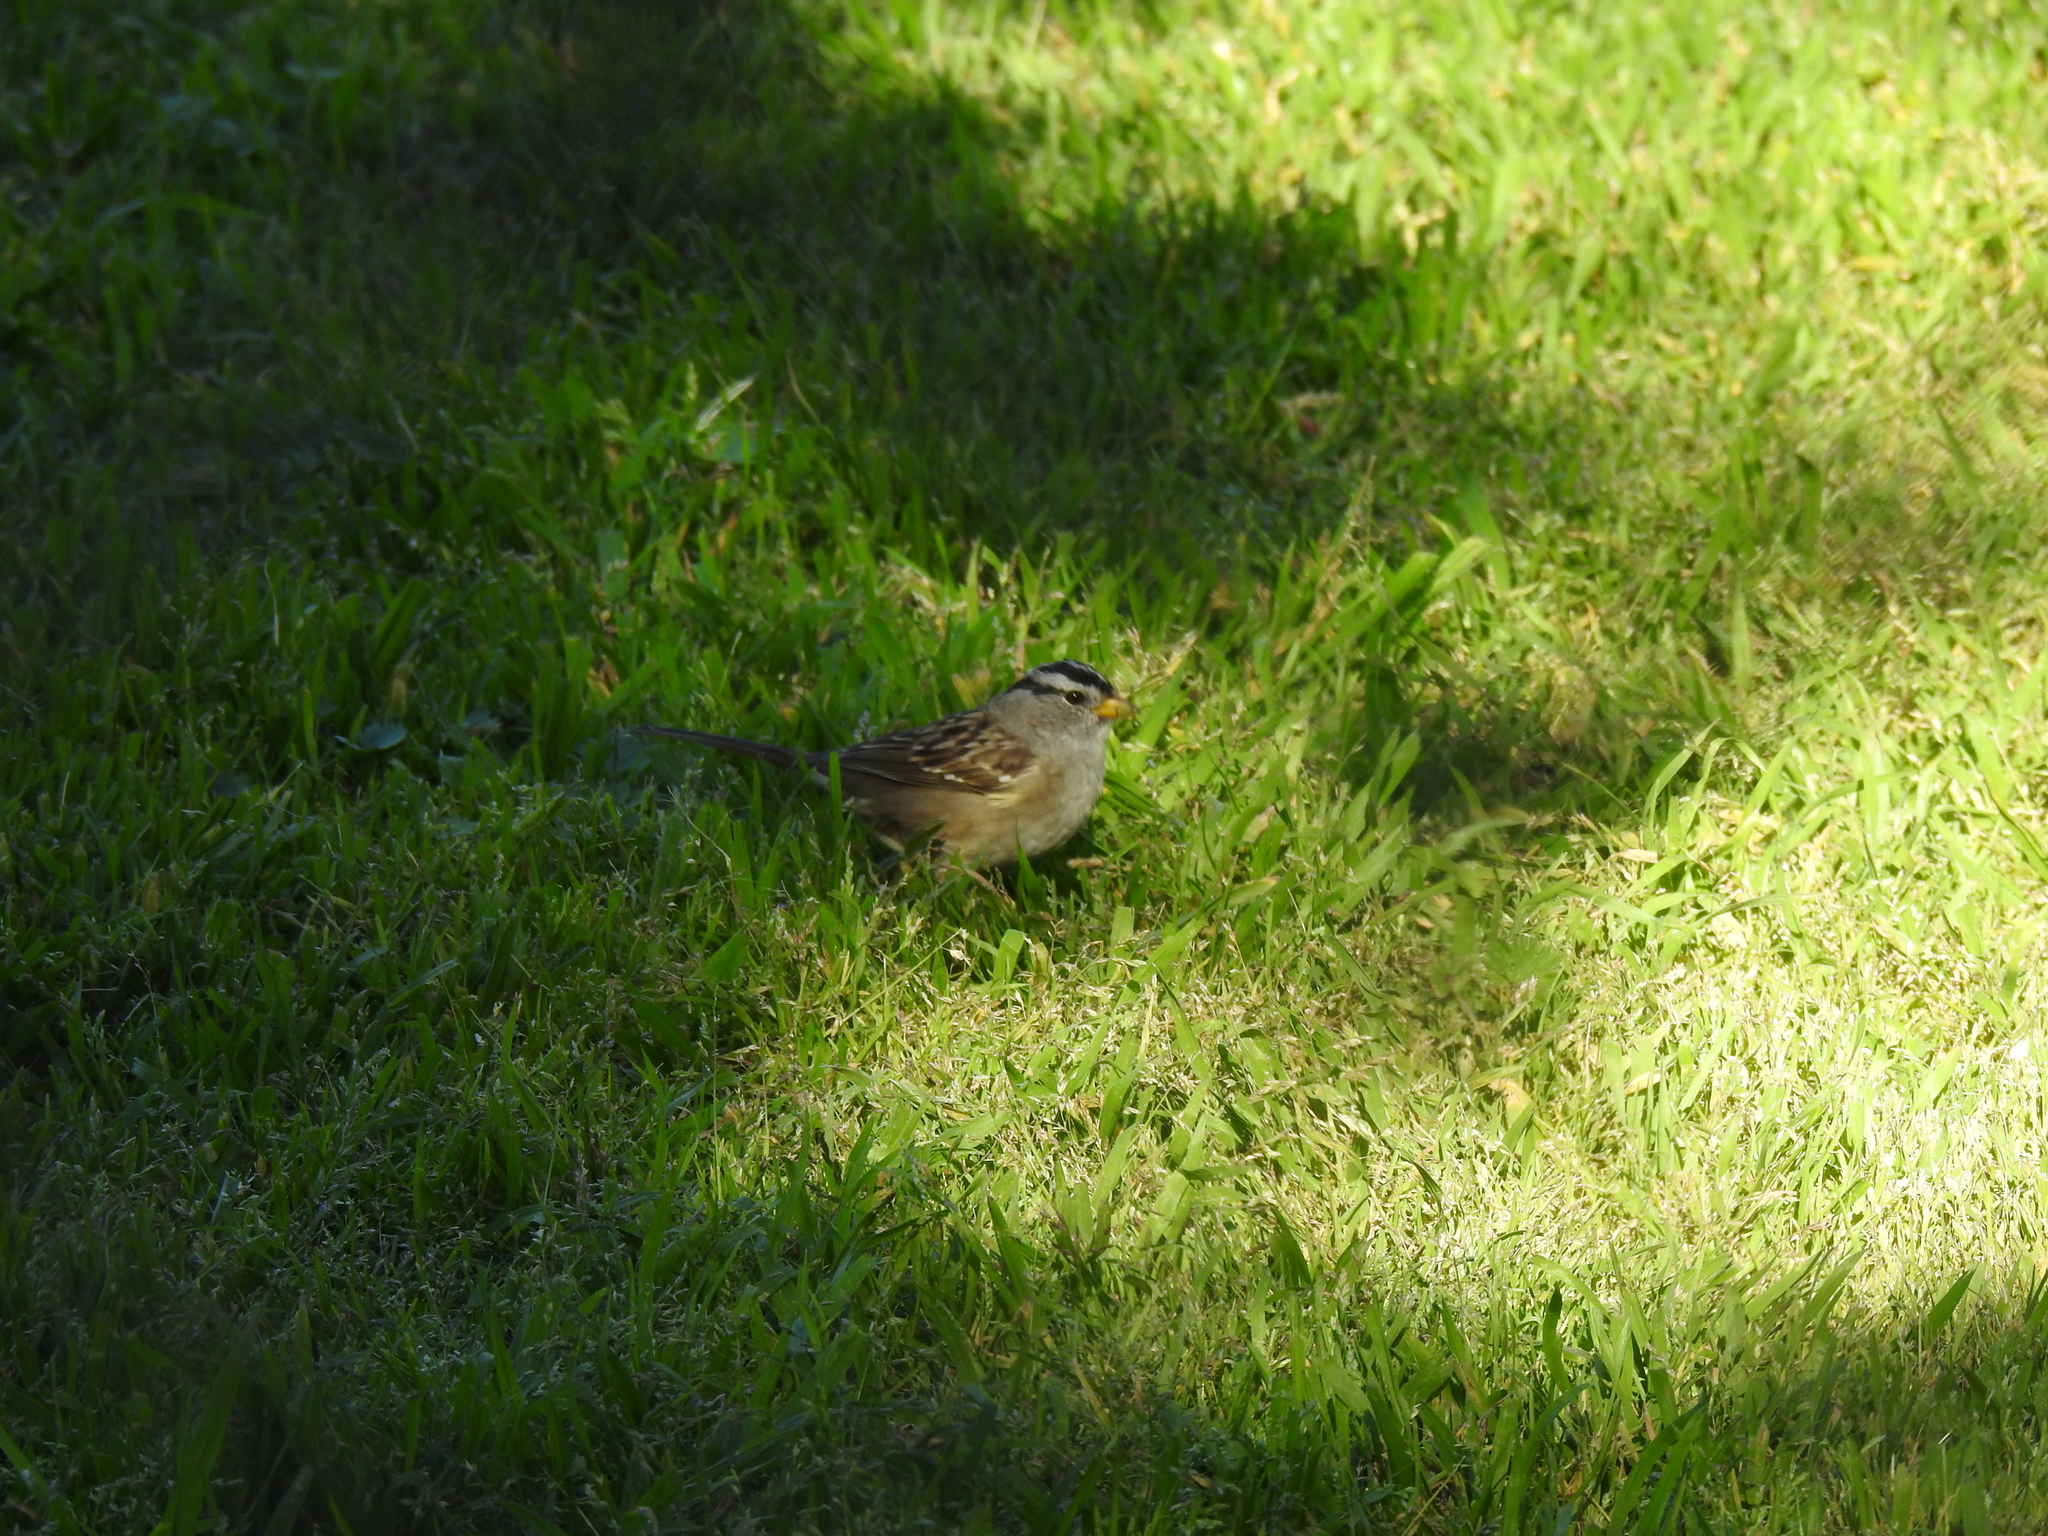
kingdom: Animalia
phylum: Chordata
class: Aves
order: Passeriformes
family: Passerellidae
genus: Zonotrichia
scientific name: Zonotrichia leucophrys
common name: White-crowned sparrow
